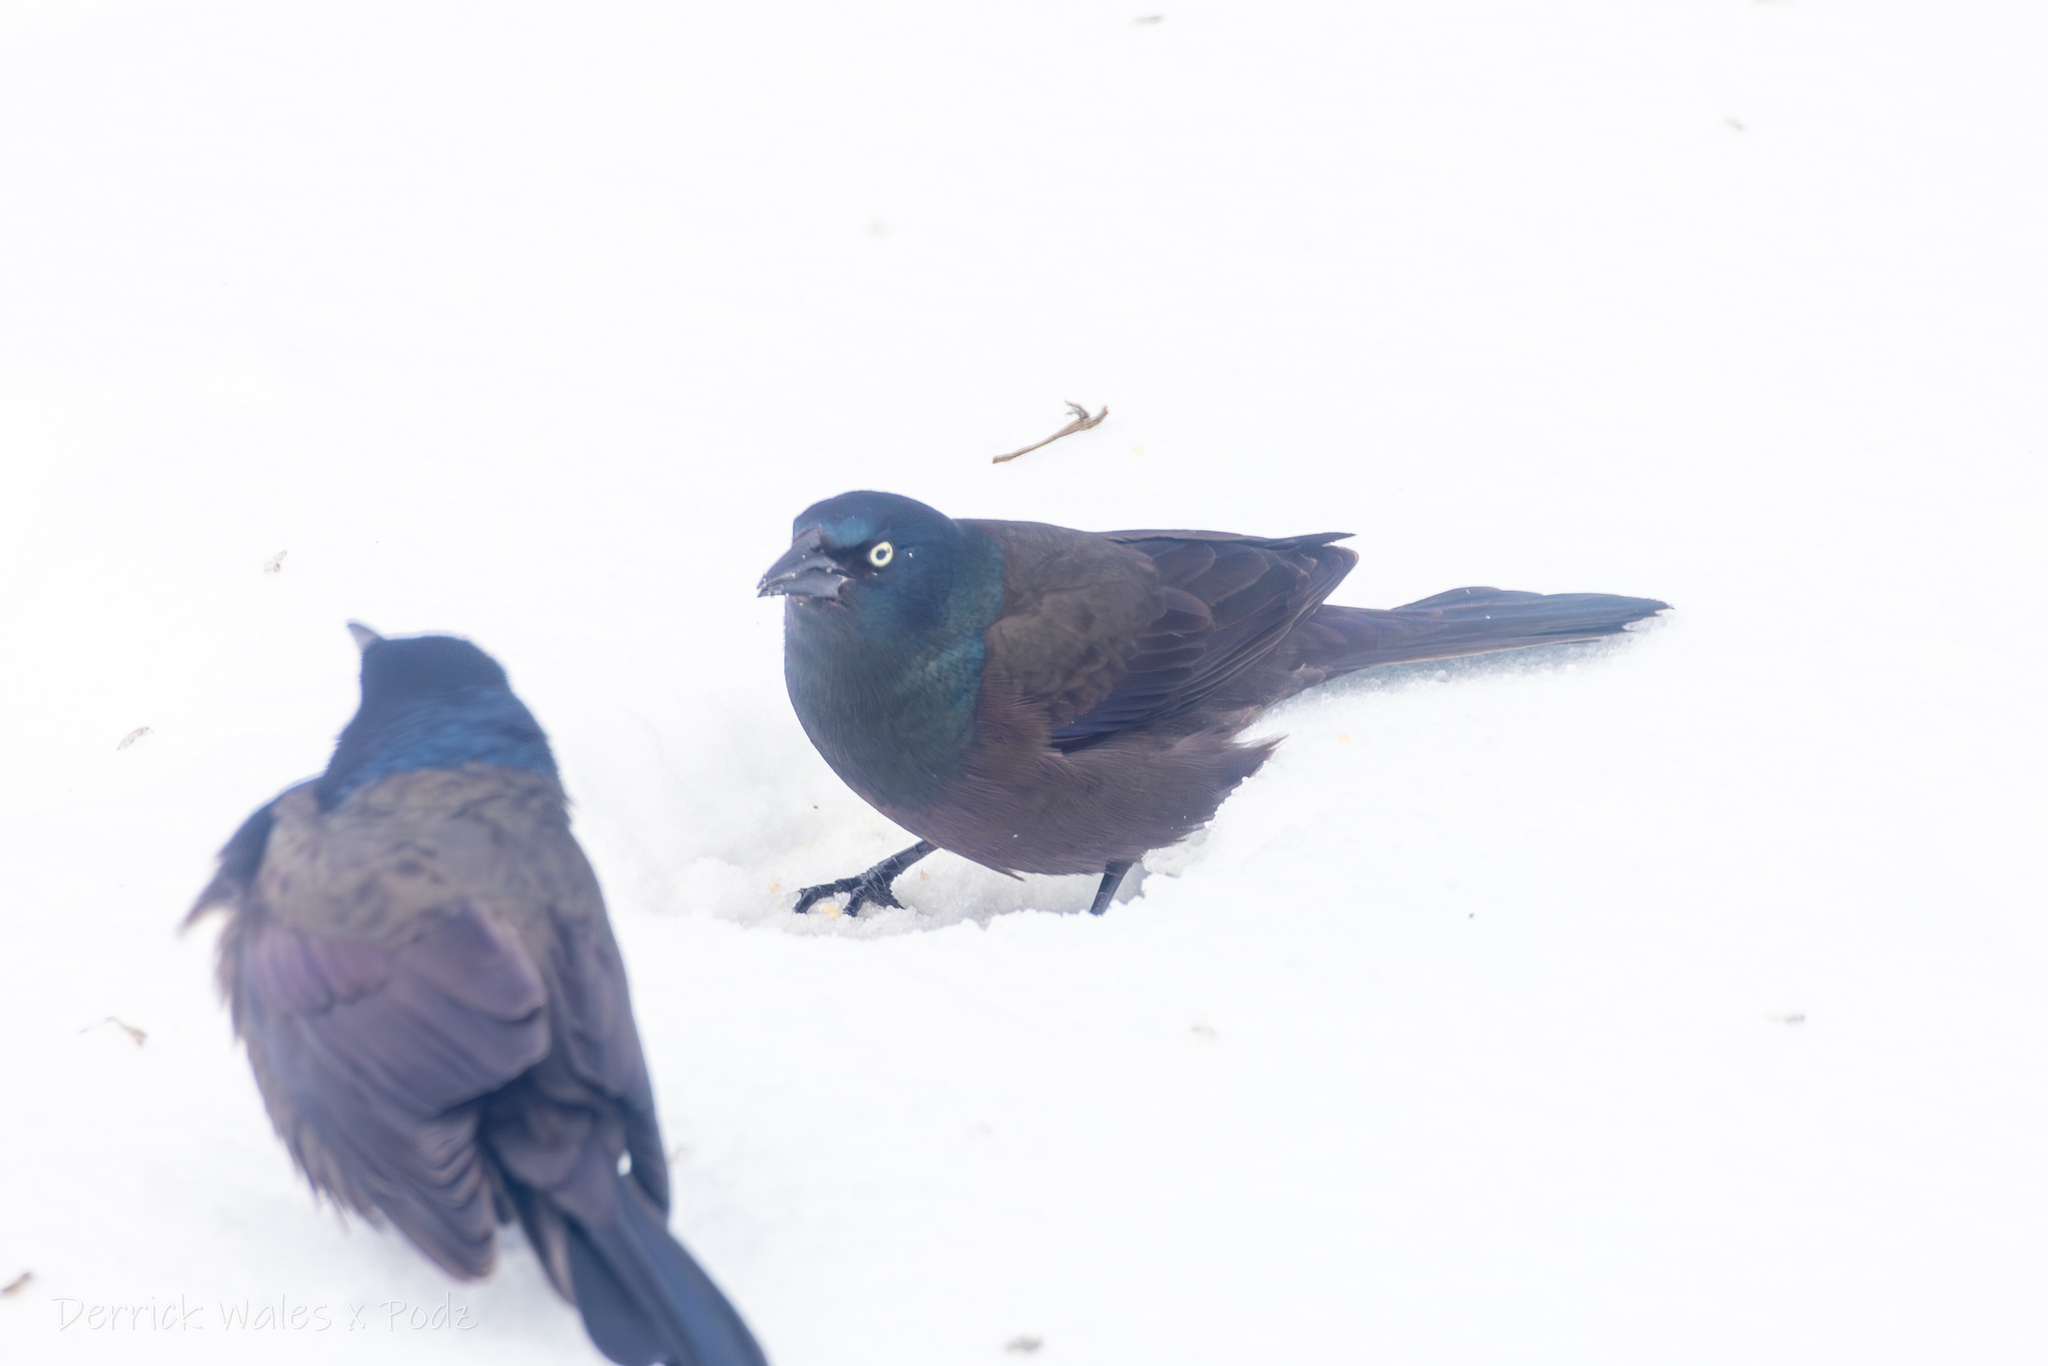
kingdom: Animalia
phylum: Chordata
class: Aves
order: Passeriformes
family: Icteridae
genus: Quiscalus
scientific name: Quiscalus quiscula
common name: Common grackle
